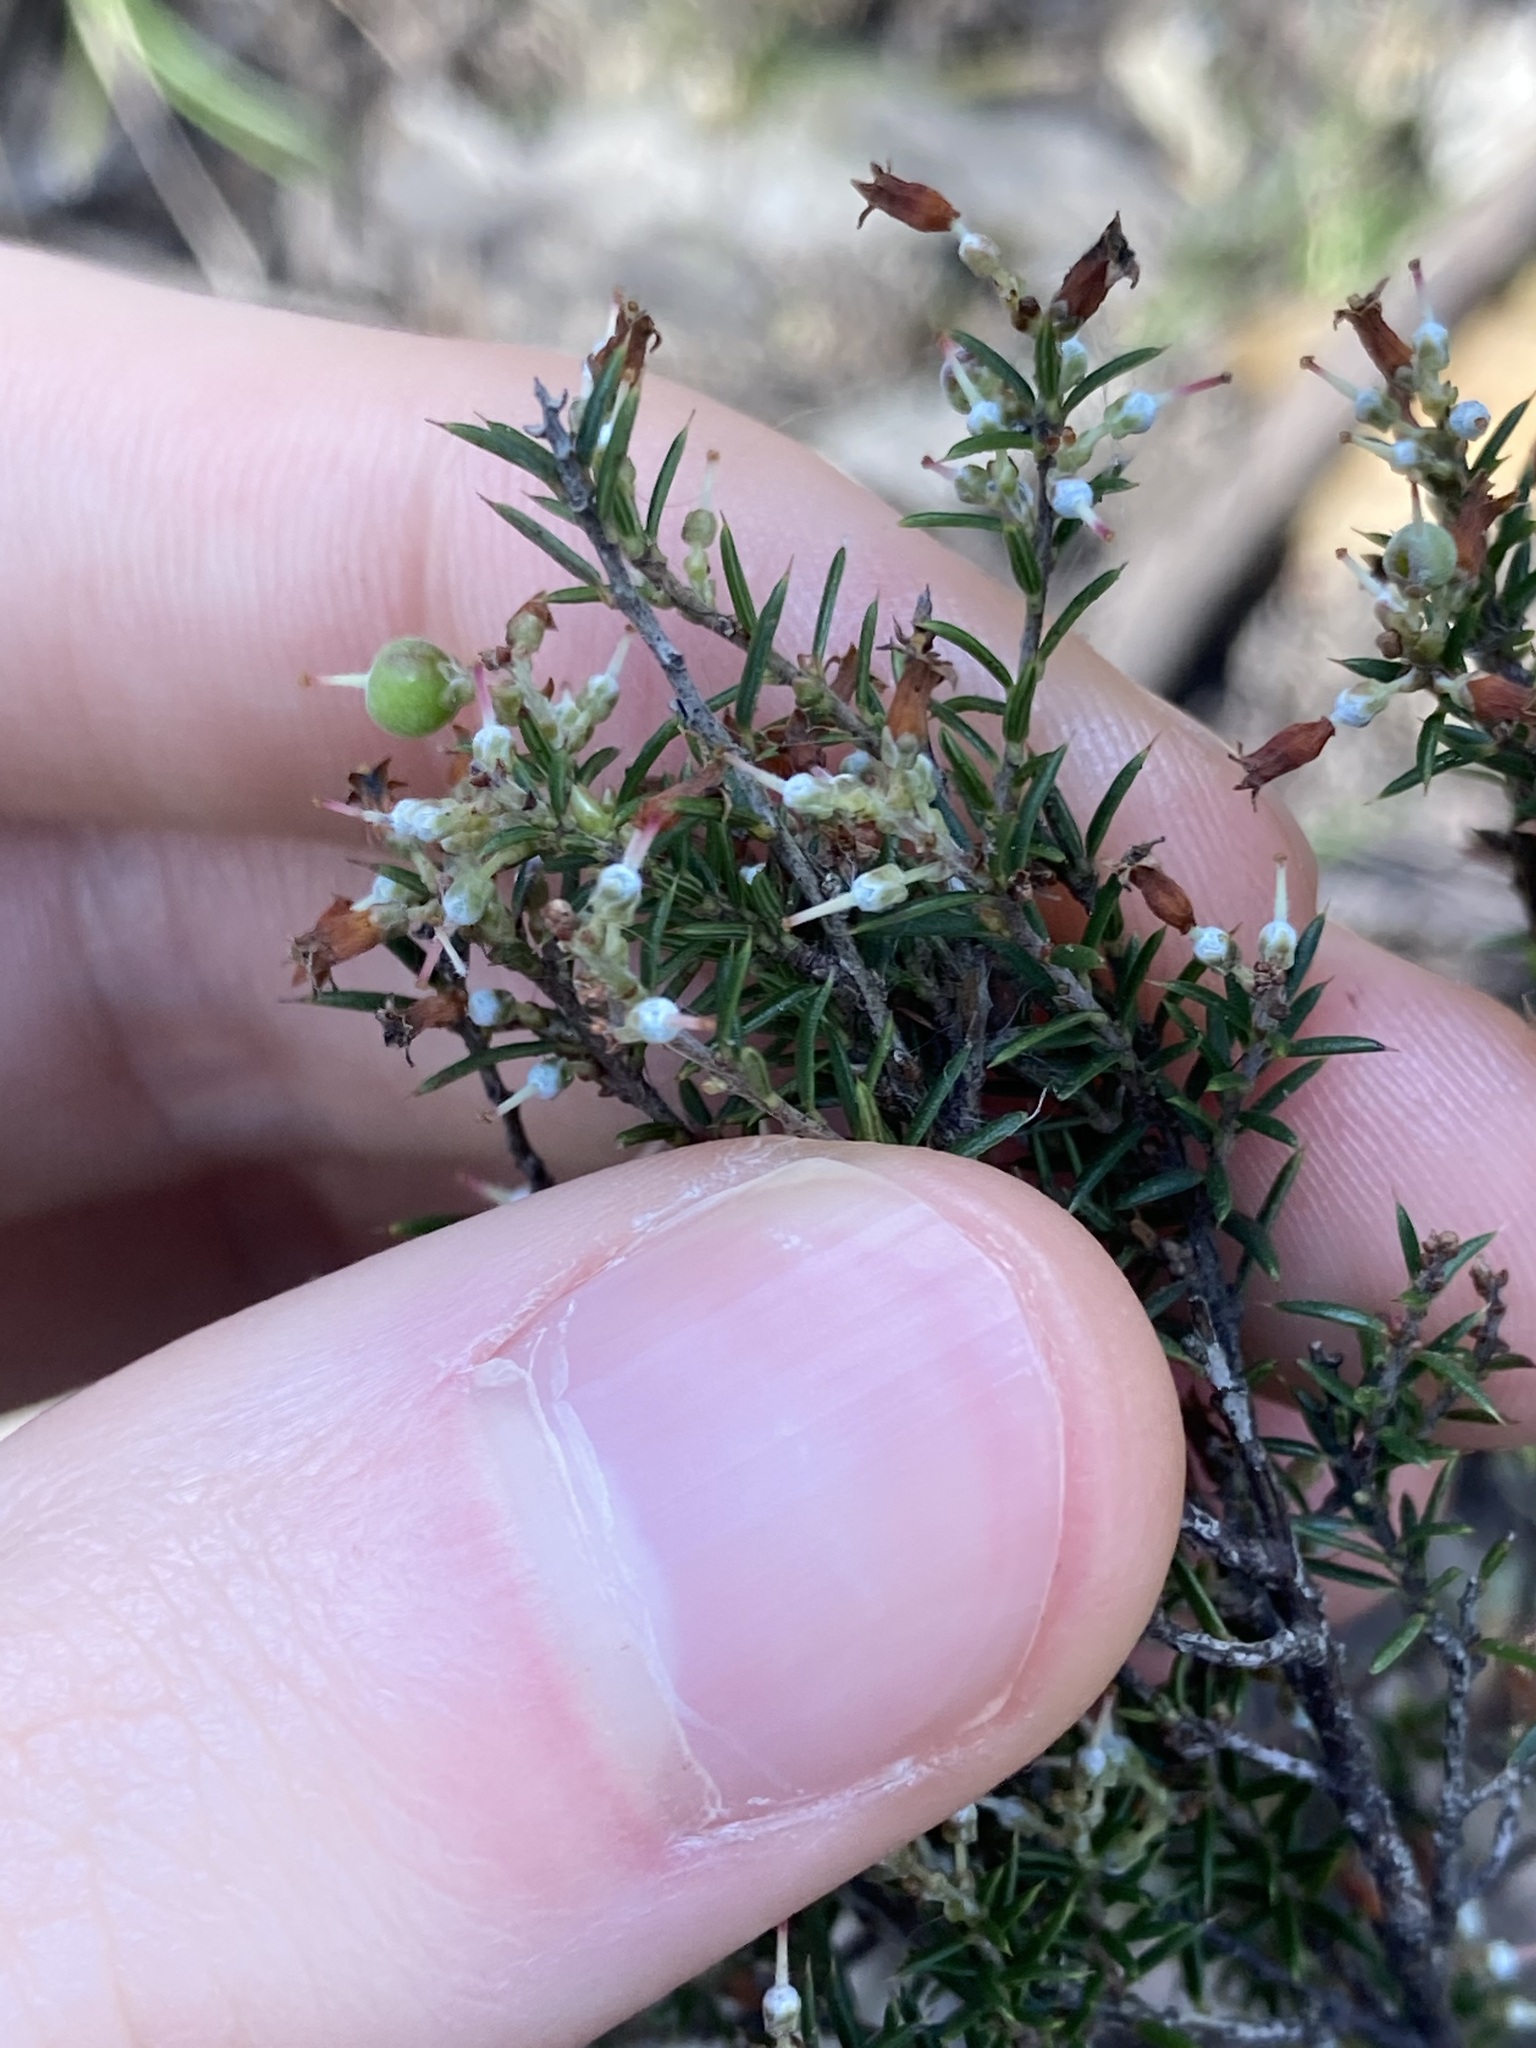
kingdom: Plantae
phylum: Tracheophyta
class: Magnoliopsida
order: Ericales
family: Ericaceae
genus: Lissanthe
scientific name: Lissanthe strigosa
